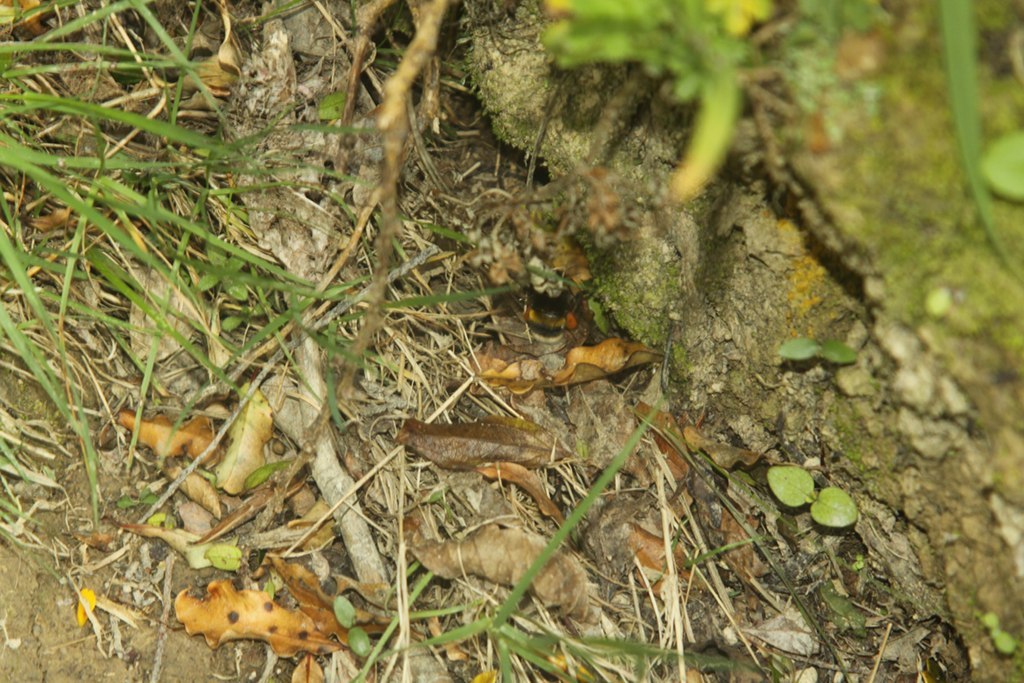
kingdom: Animalia
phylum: Arthropoda
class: Insecta
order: Hymenoptera
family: Apidae
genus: Bombus
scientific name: Bombus terrestris
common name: Buff-tailed bumblebee
